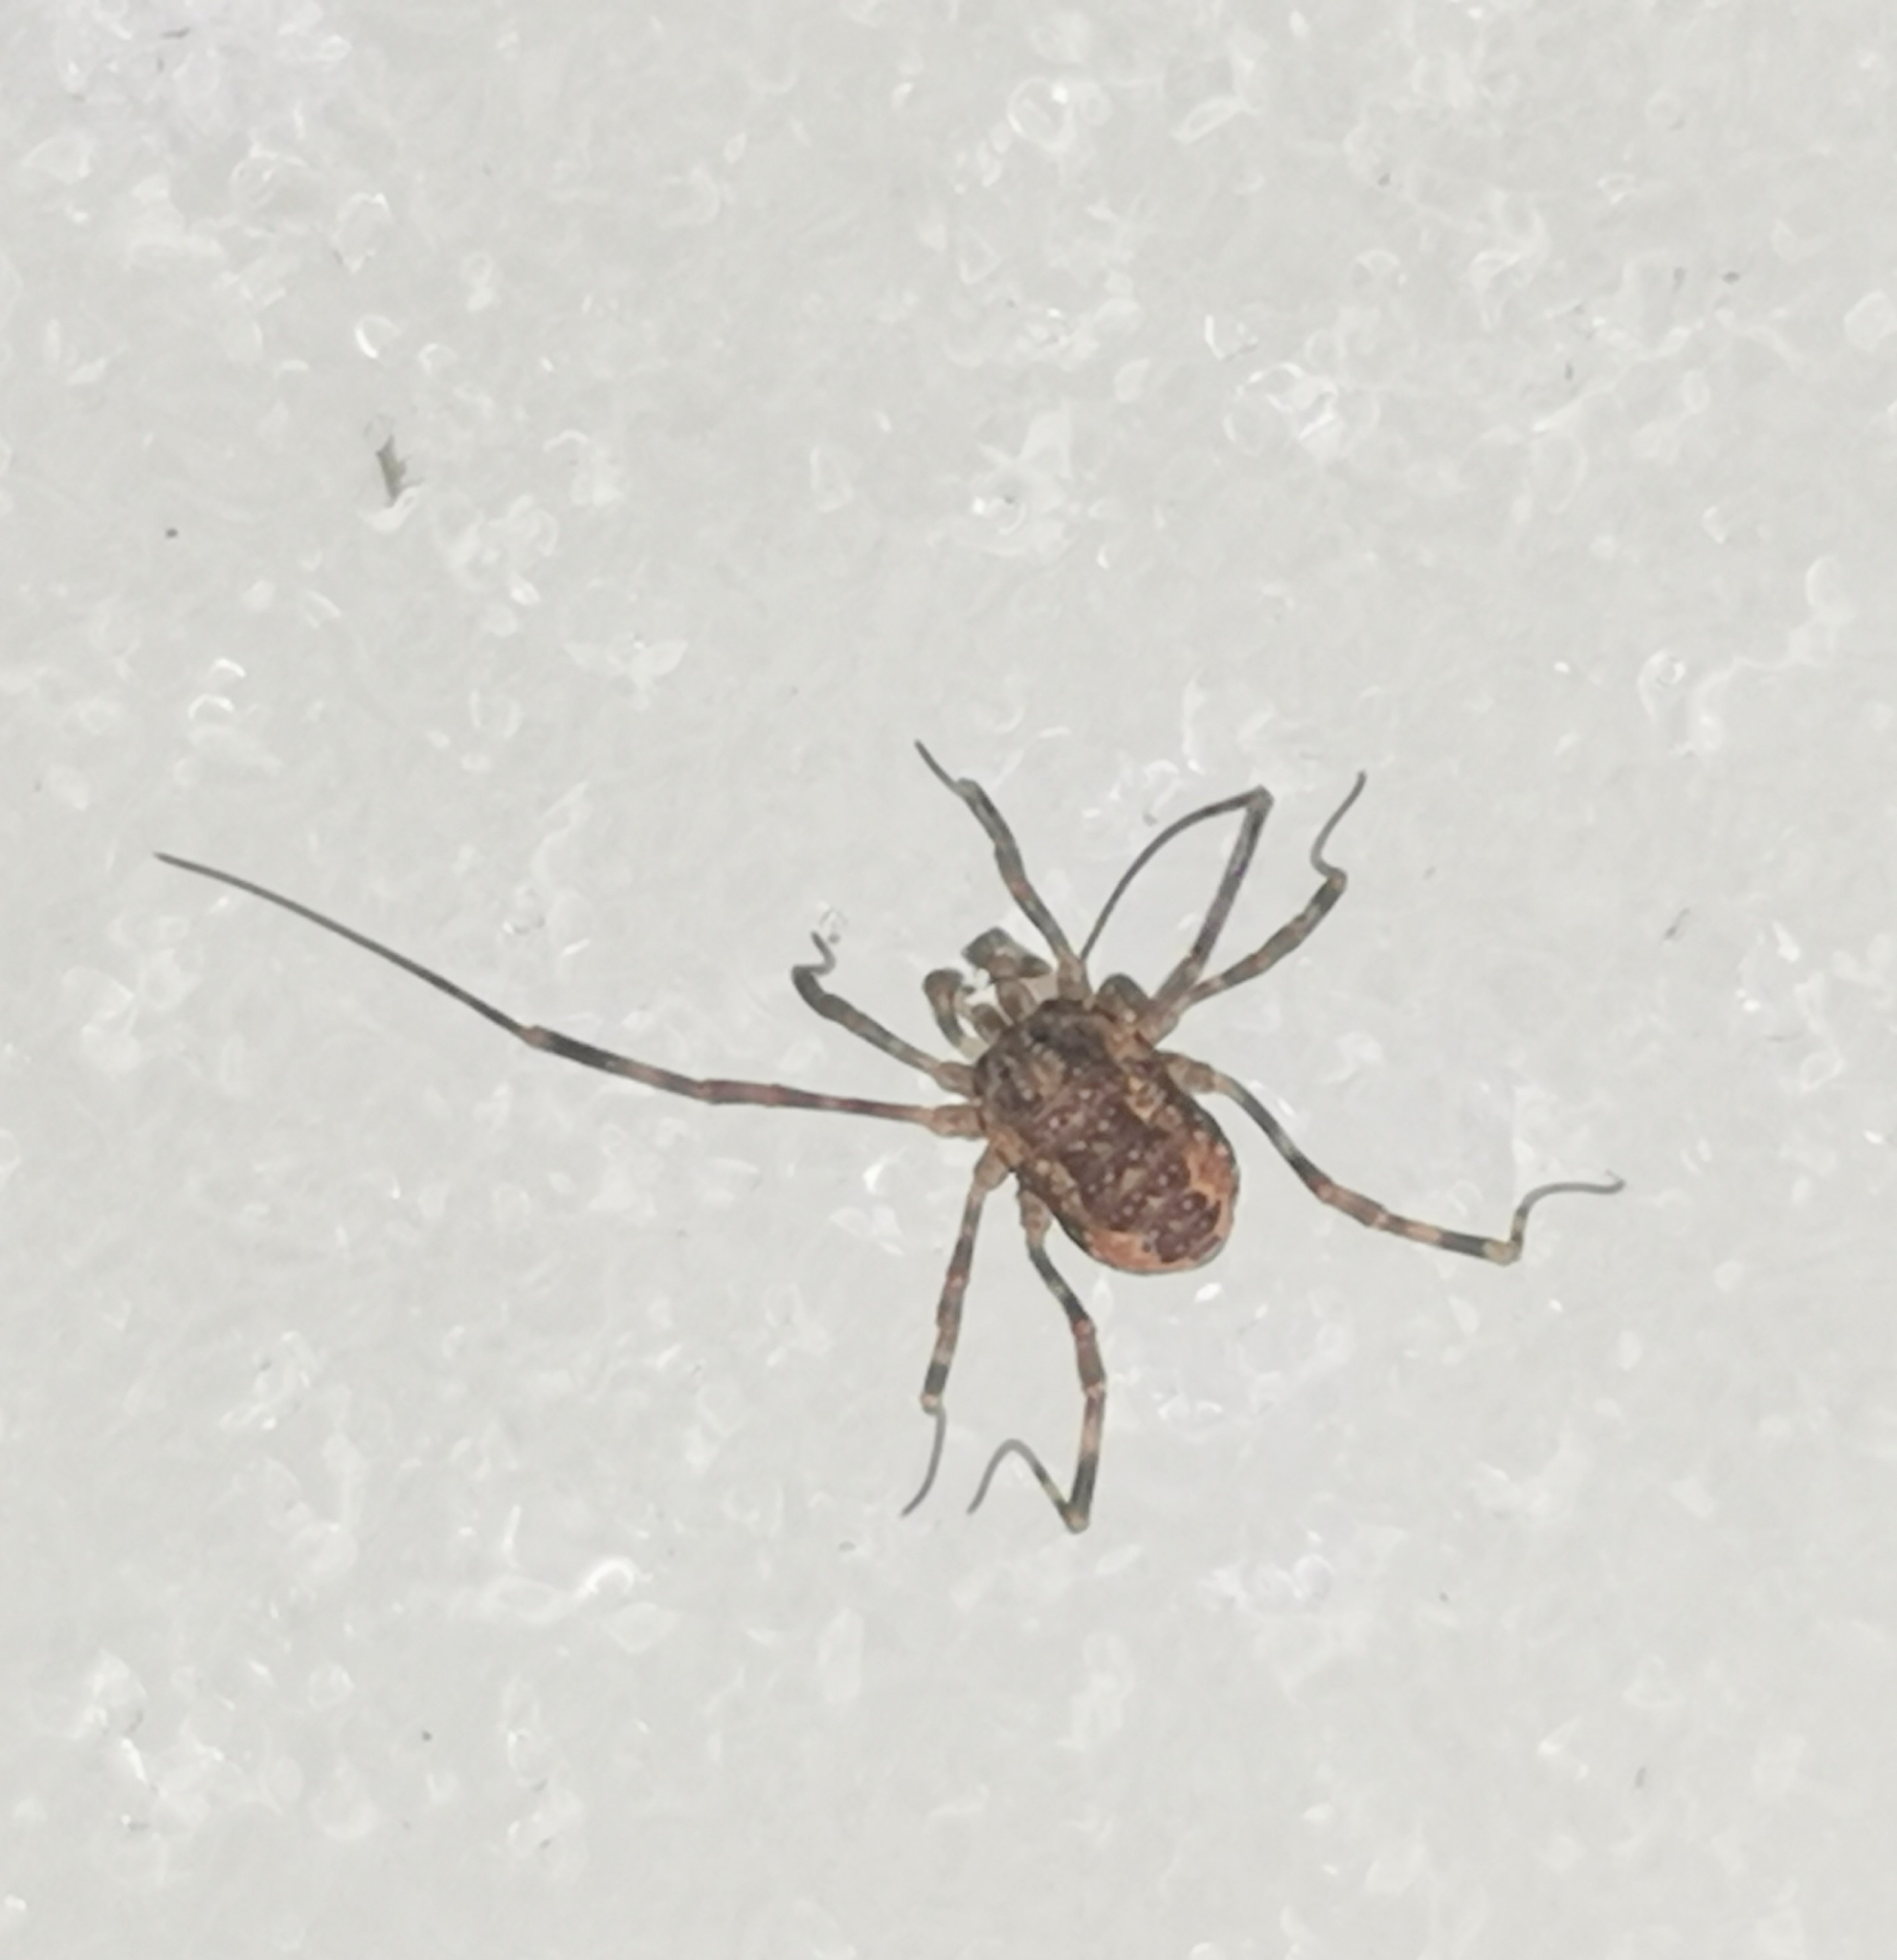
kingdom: Animalia
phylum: Arthropoda
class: Arachnida
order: Opiliones
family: Phalangiidae
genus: Rilaena
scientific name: Rilaena triangularis
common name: Spring harvestman
